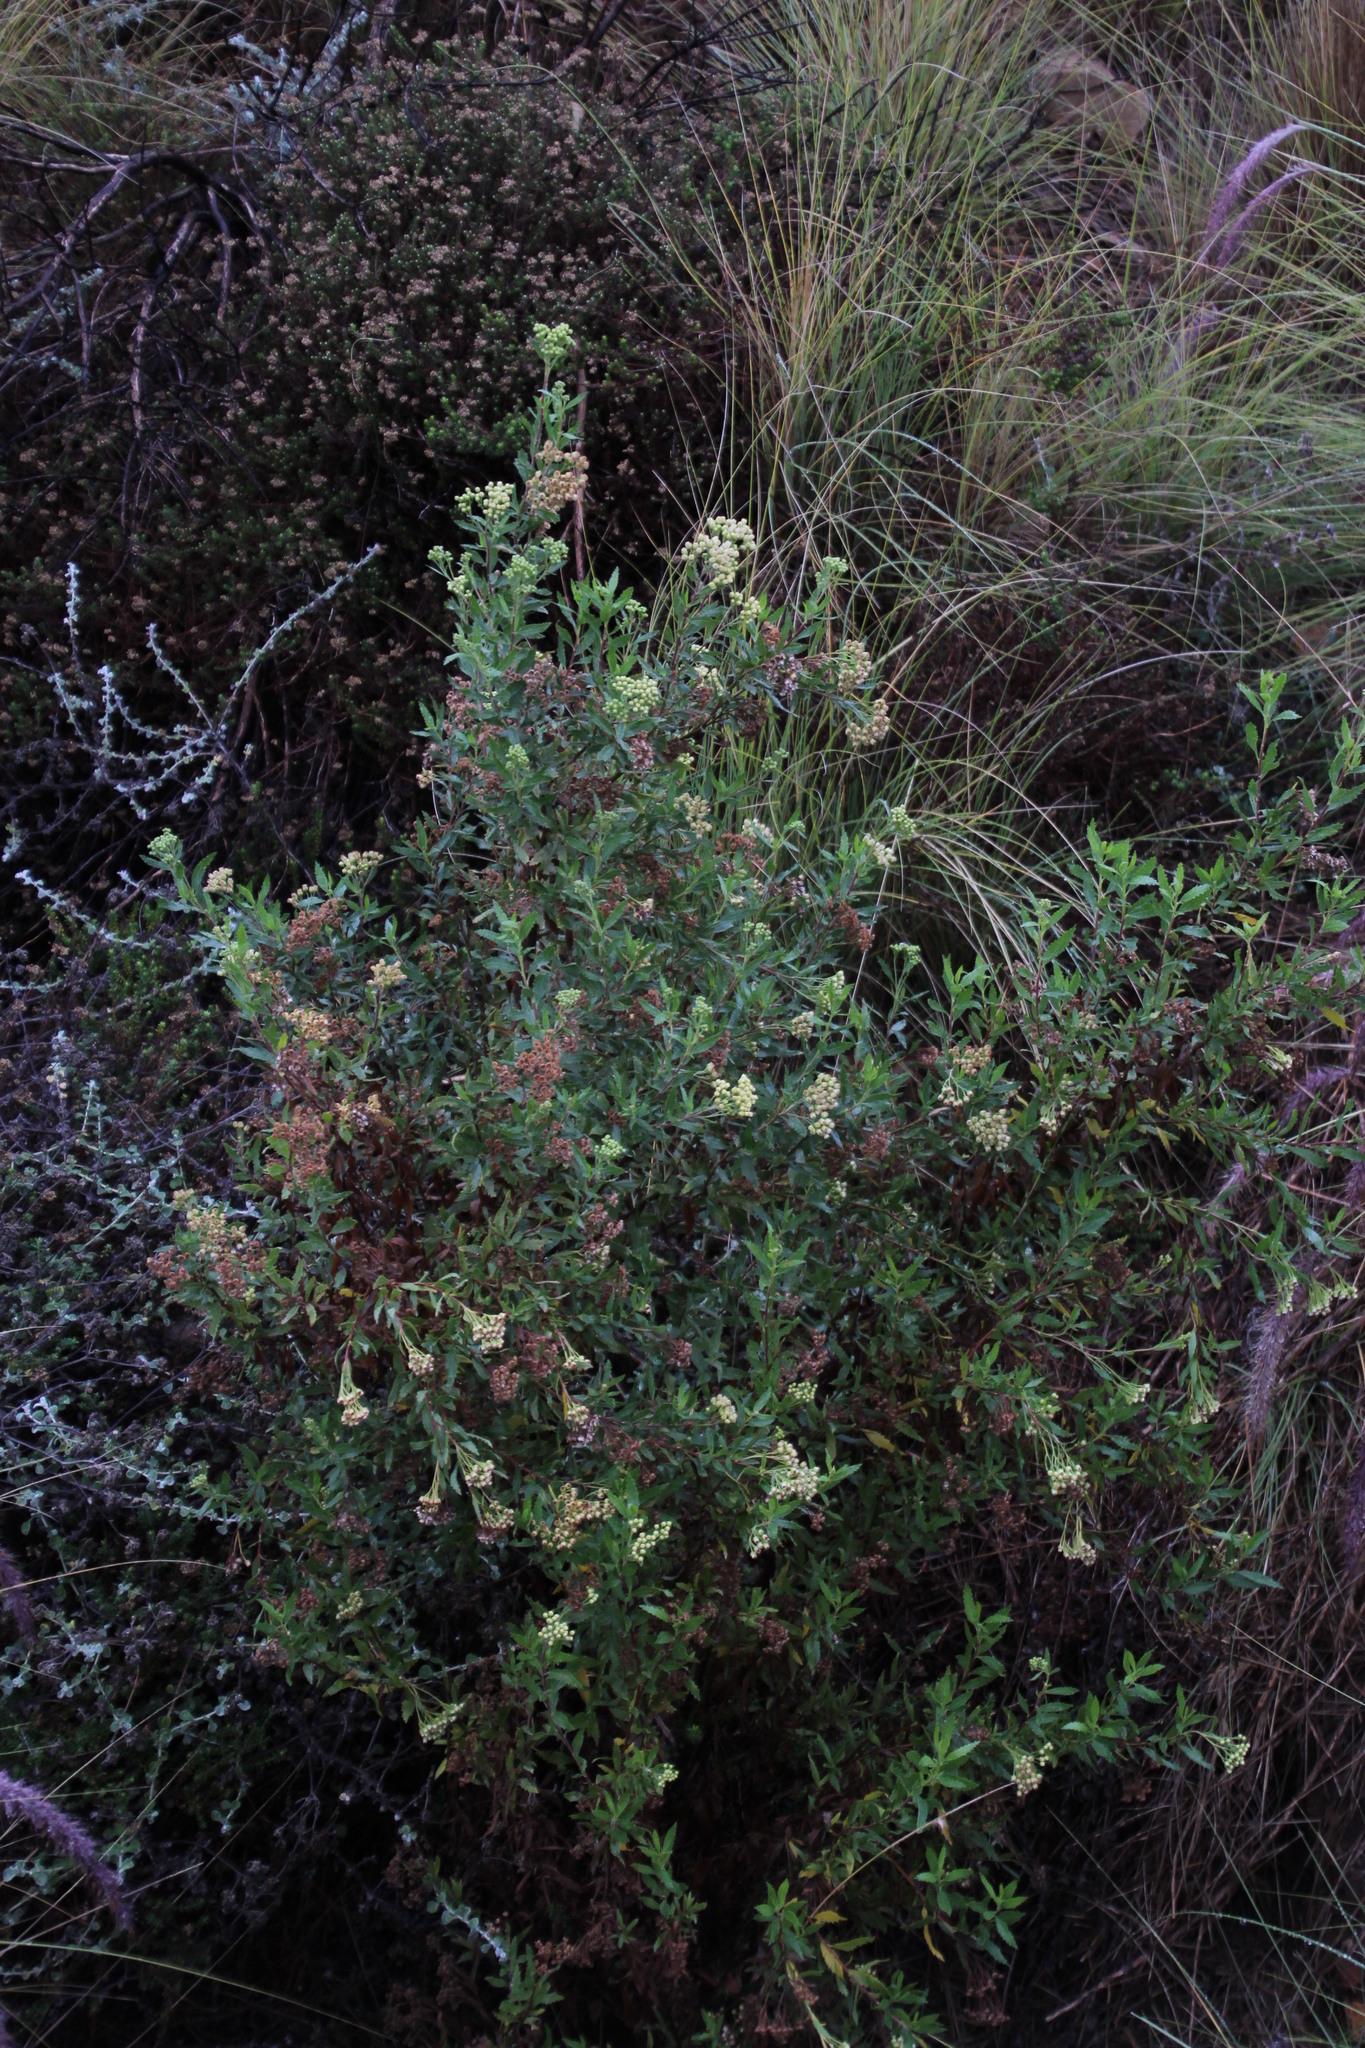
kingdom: Plantae
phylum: Tracheophyta
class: Magnoliopsida
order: Asterales
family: Asteraceae
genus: Nidorella
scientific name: Nidorella ivifolia
